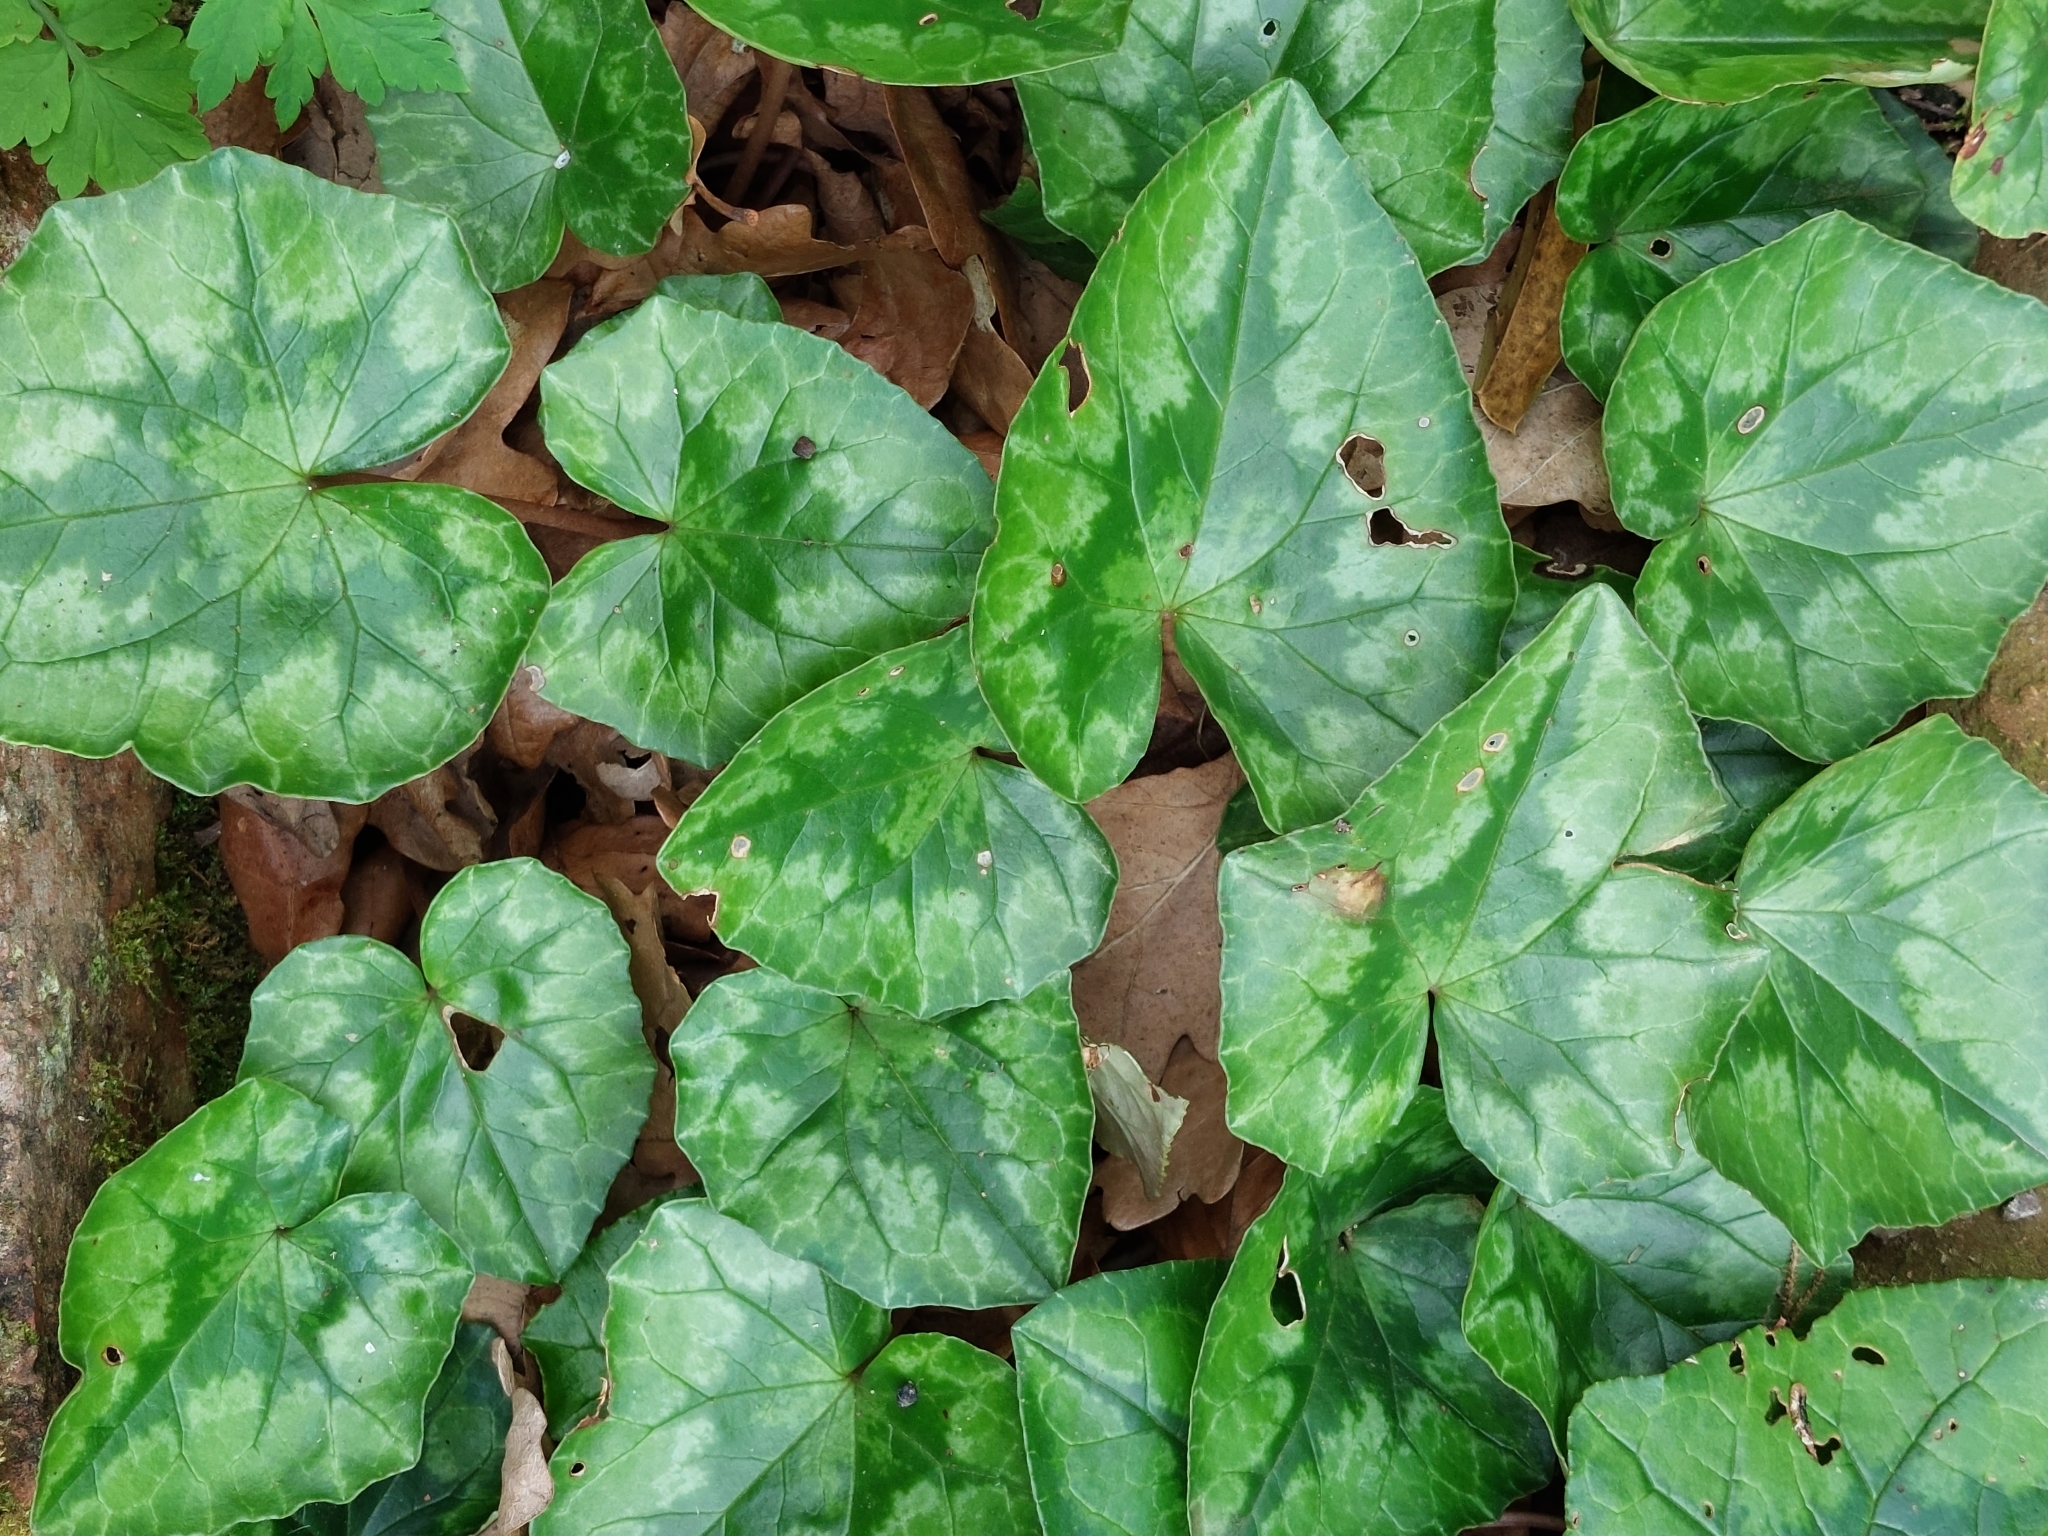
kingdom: Plantae
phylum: Tracheophyta
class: Magnoliopsida
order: Ericales
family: Primulaceae
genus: Cyclamen
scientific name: Cyclamen hederifolium
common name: Sowbread
